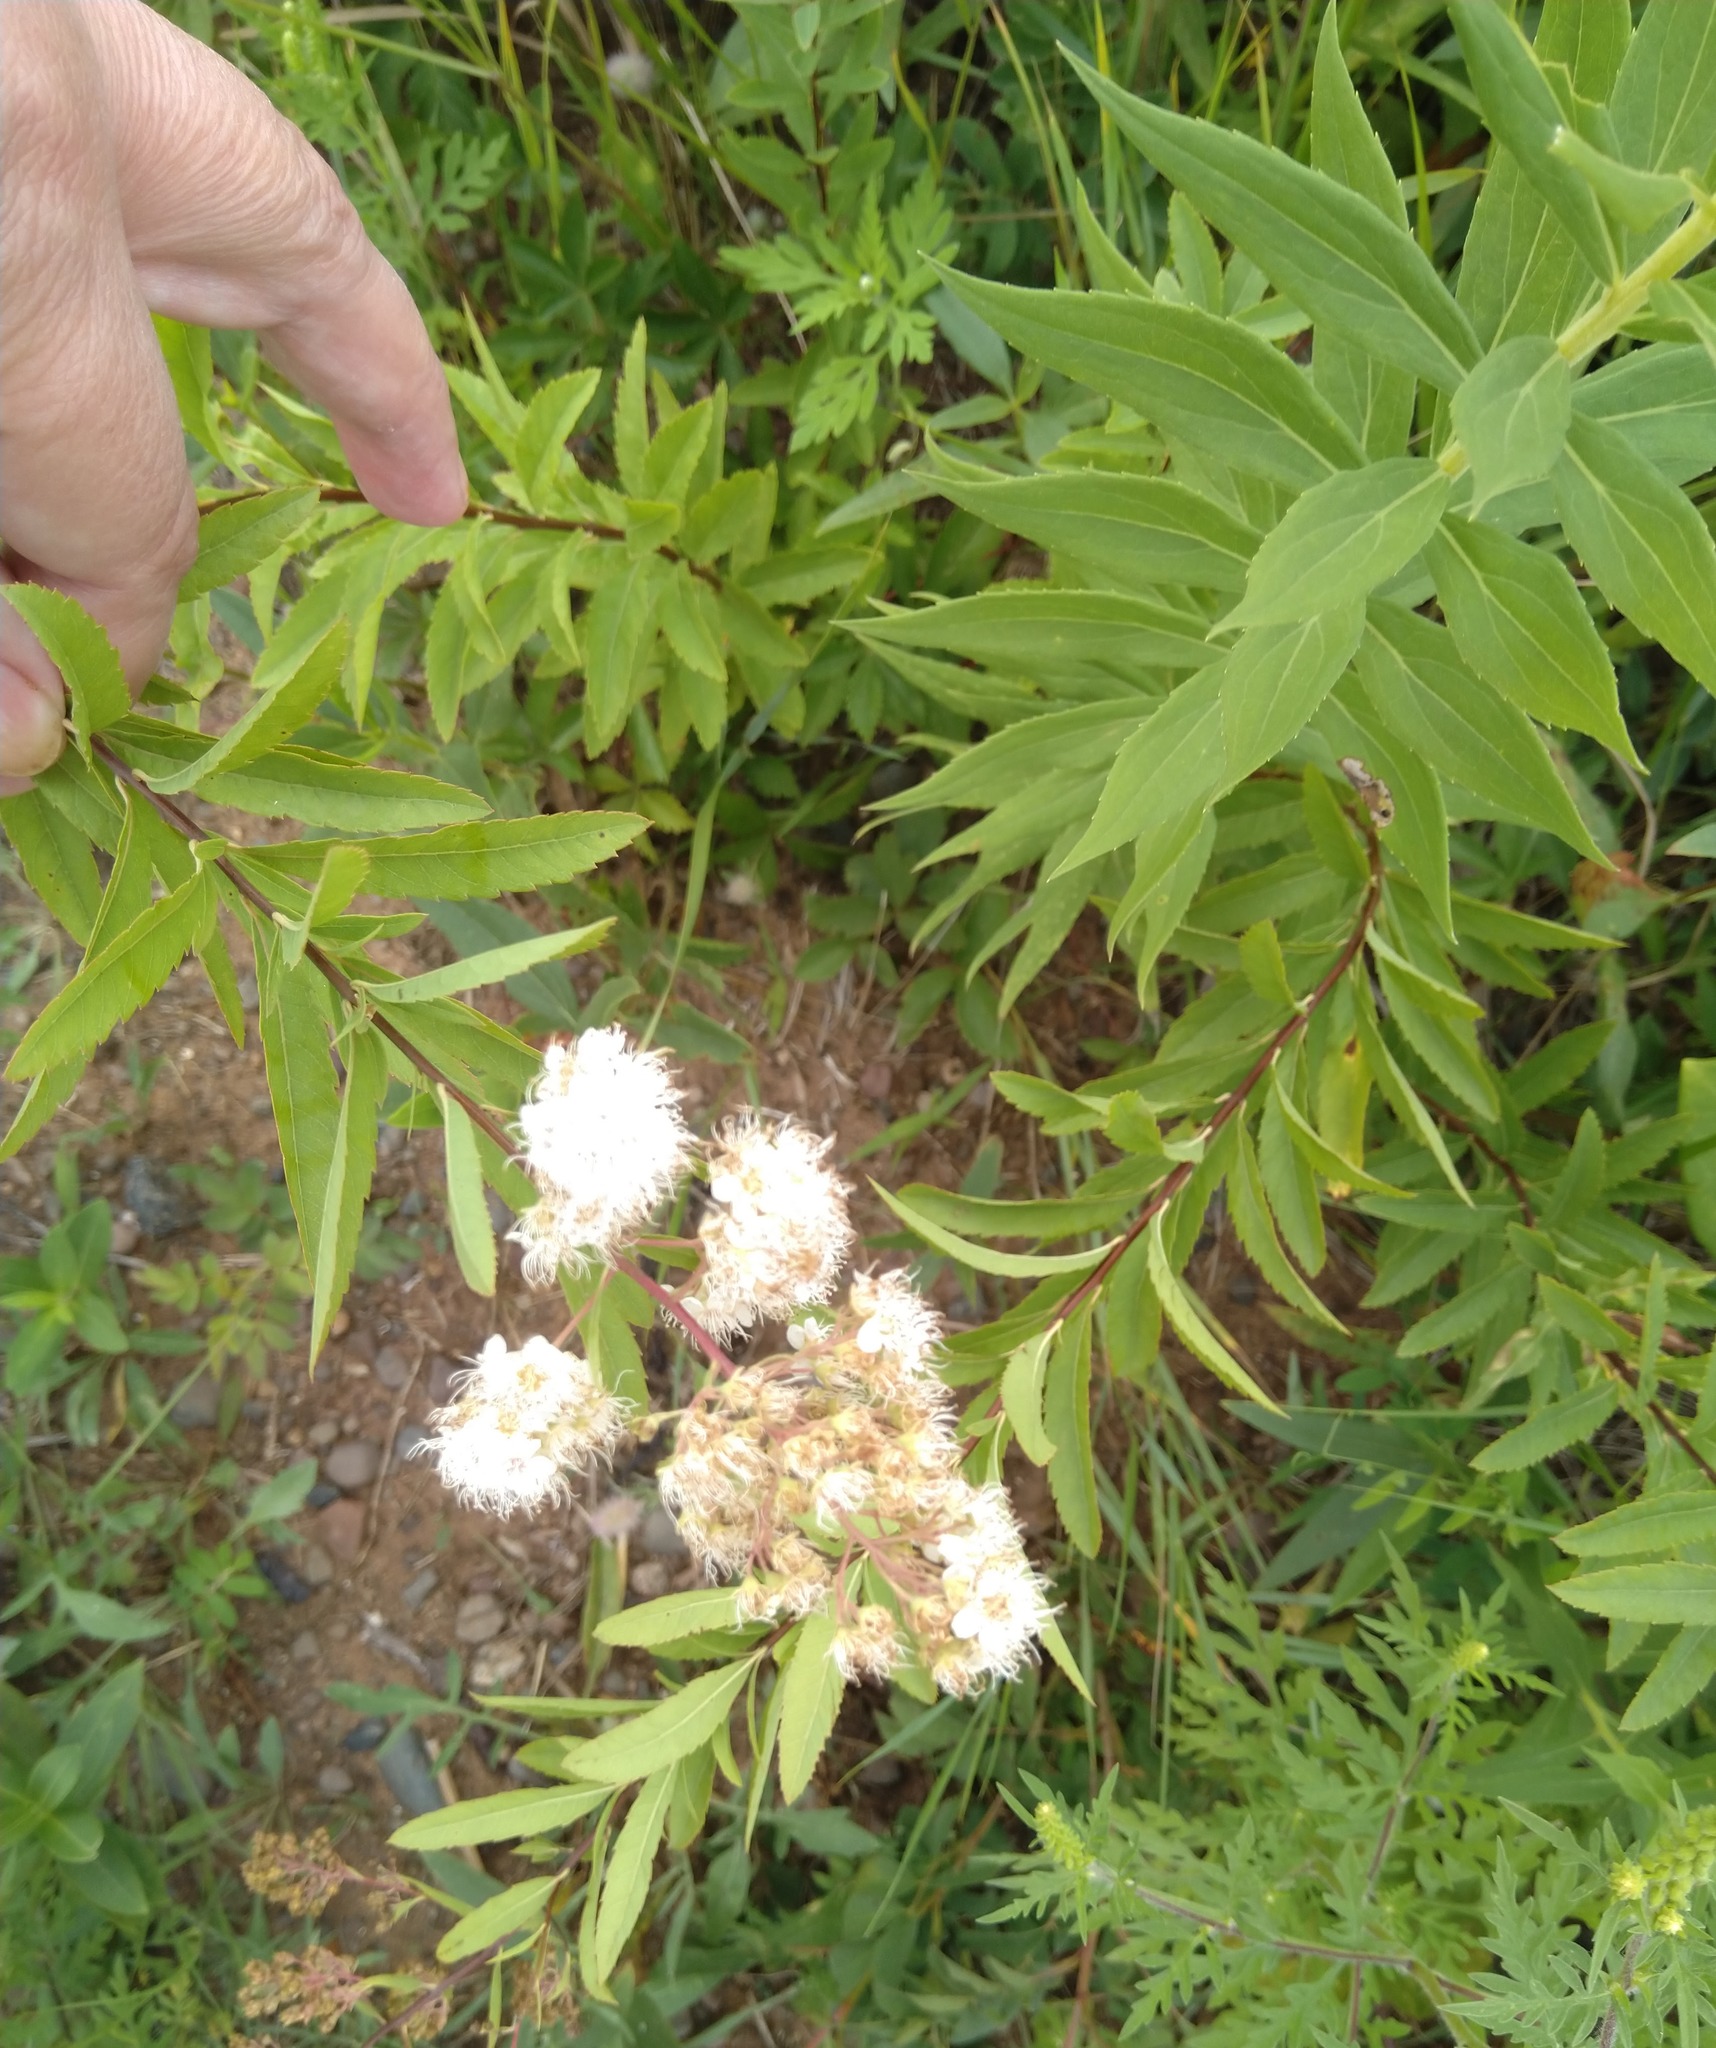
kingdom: Plantae
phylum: Tracheophyta
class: Magnoliopsida
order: Rosales
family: Rosaceae
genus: Spiraea
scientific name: Spiraea alba
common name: Pale bridewort
